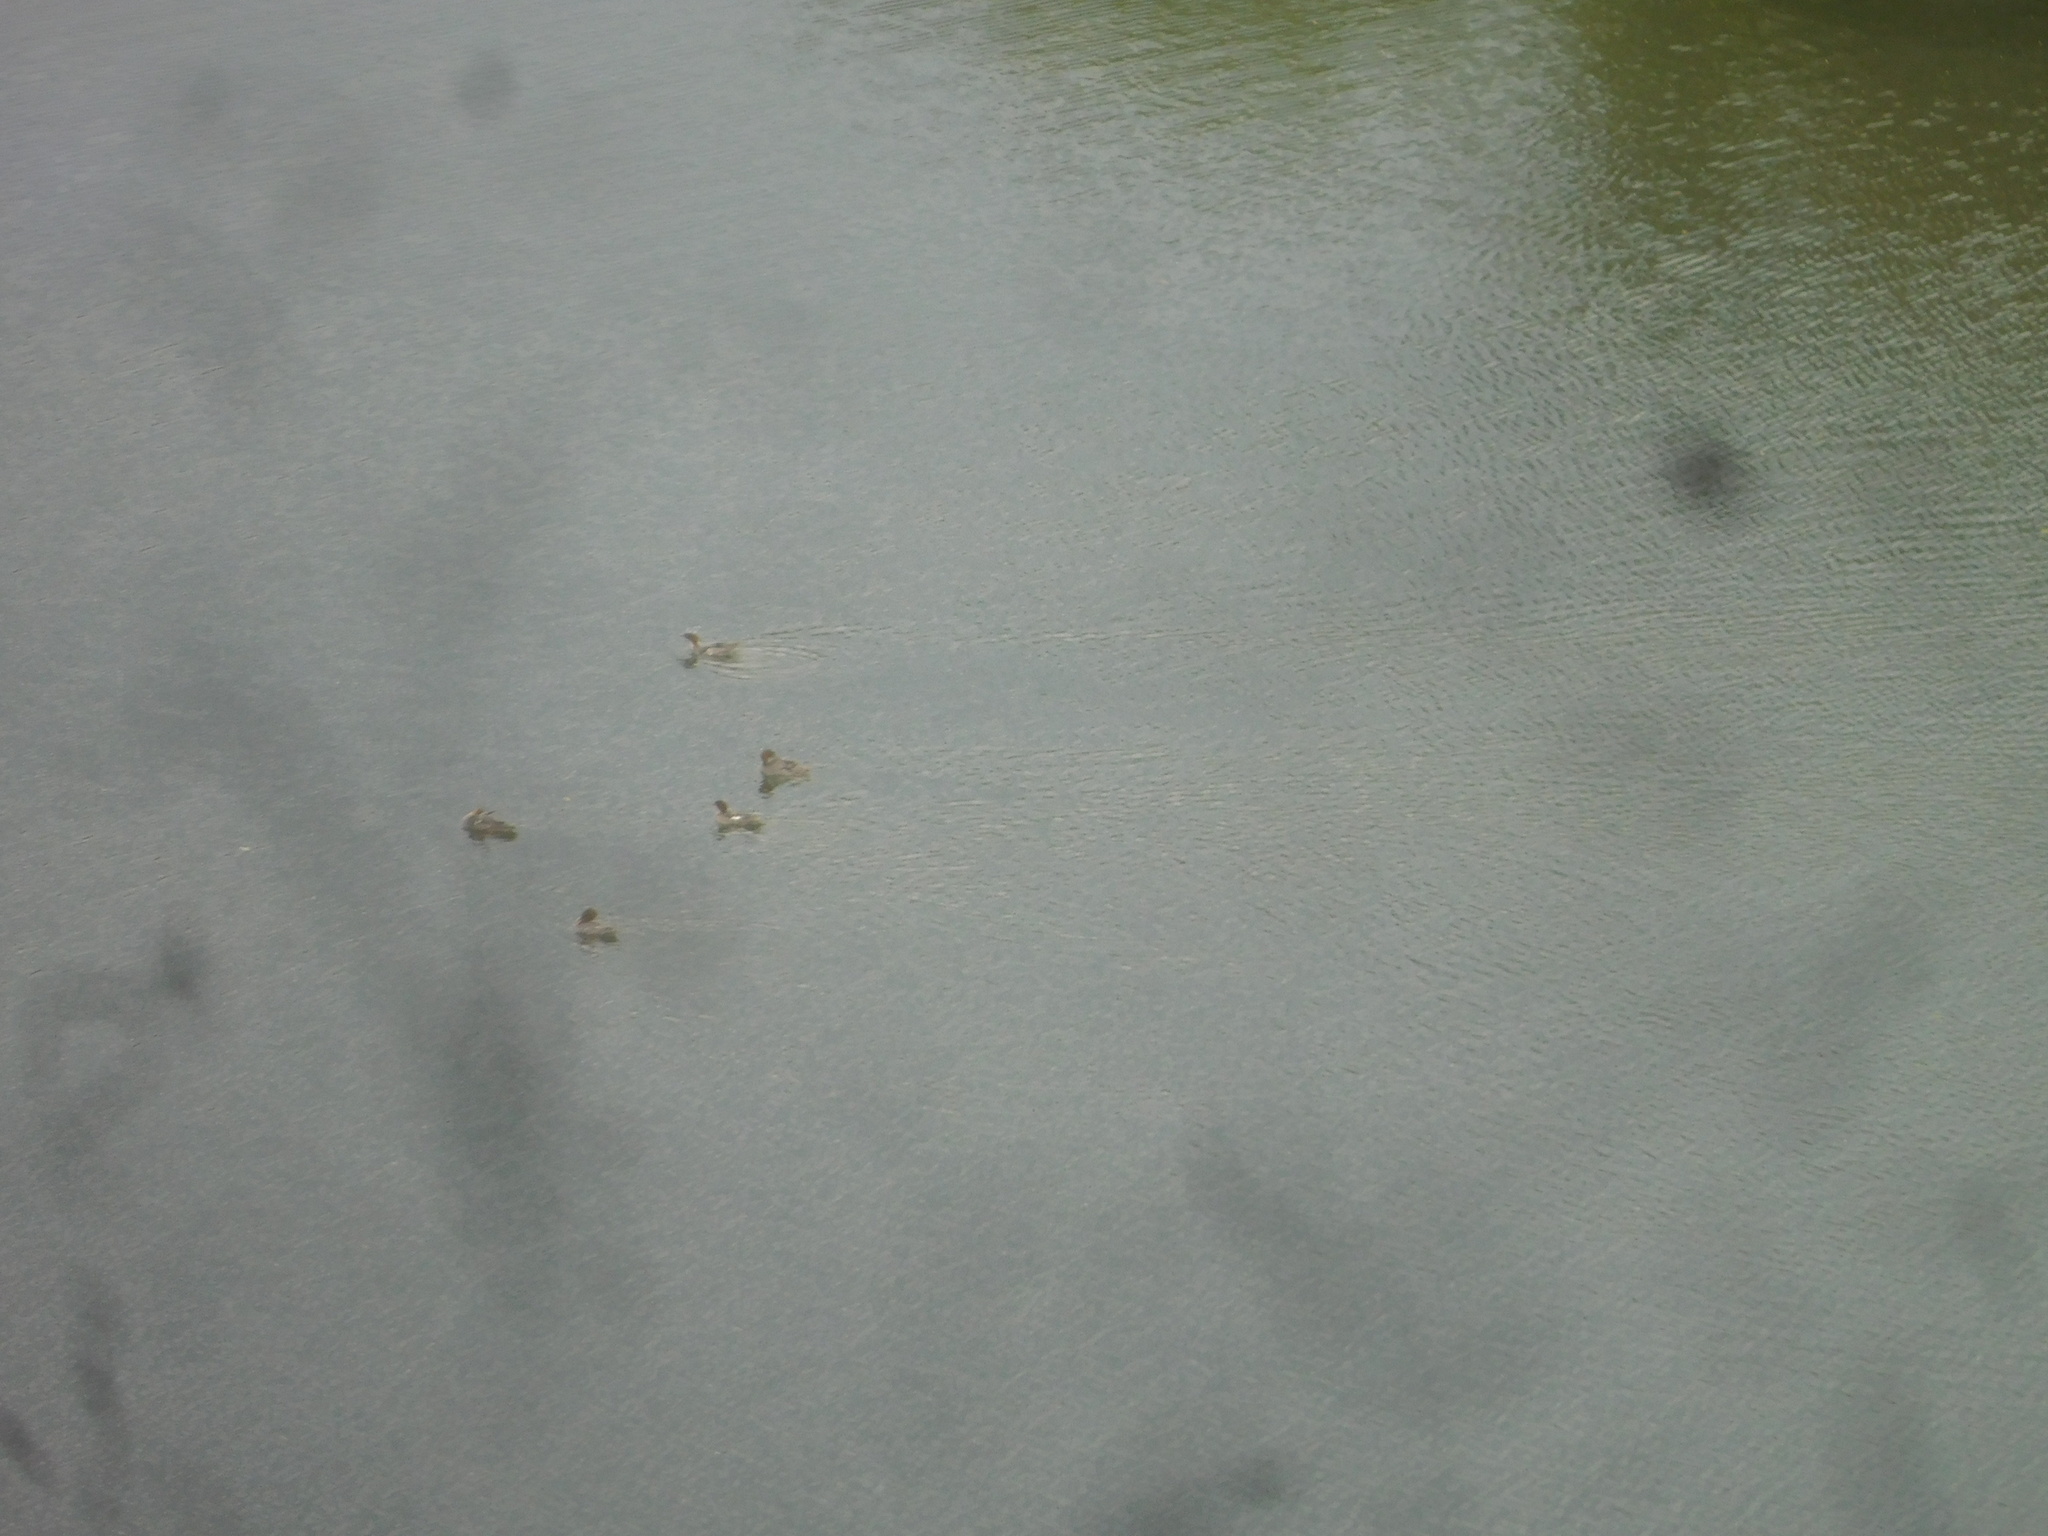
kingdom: Animalia
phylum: Chordata
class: Aves
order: Anseriformes
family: Anatidae
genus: Mergus
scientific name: Mergus merganser
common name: Common merganser
